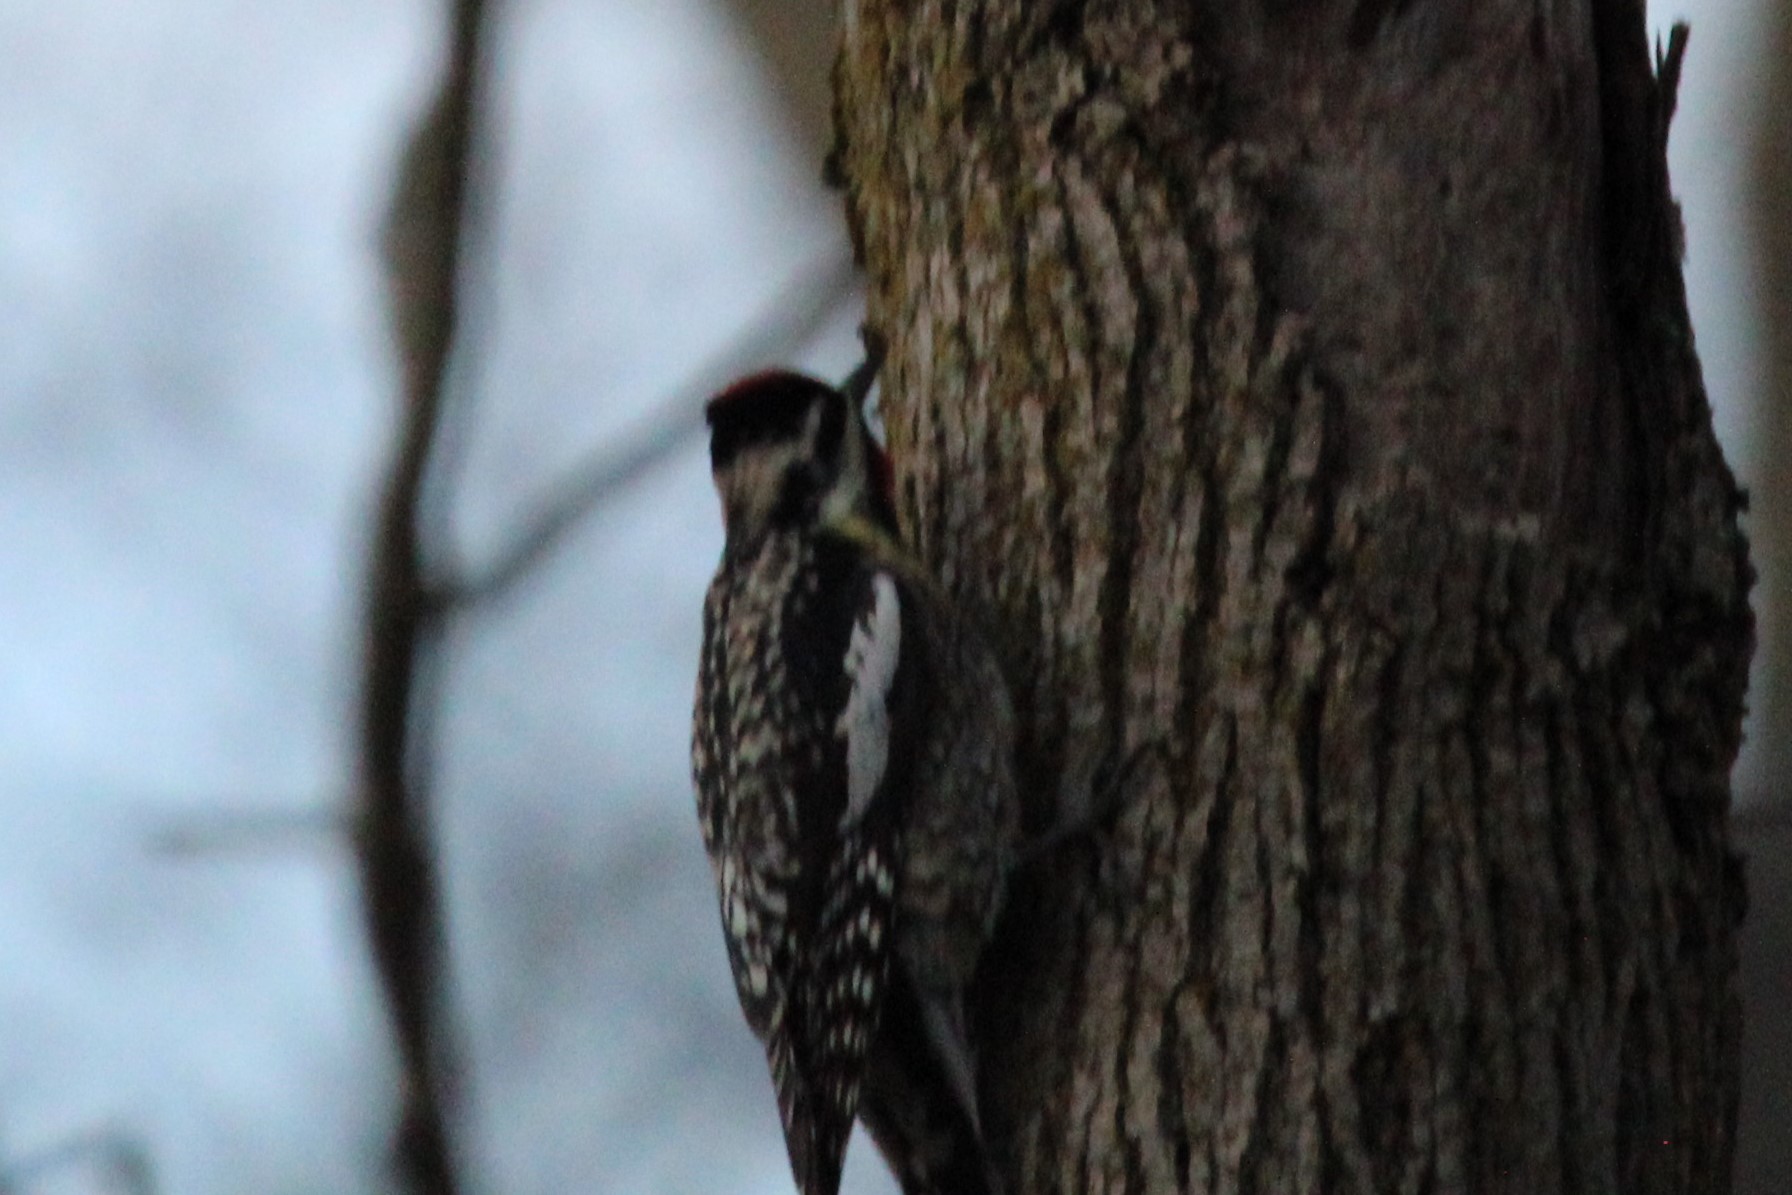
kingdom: Animalia
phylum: Chordata
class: Aves
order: Piciformes
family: Picidae
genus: Sphyrapicus
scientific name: Sphyrapicus varius
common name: Yellow-bellied sapsucker
